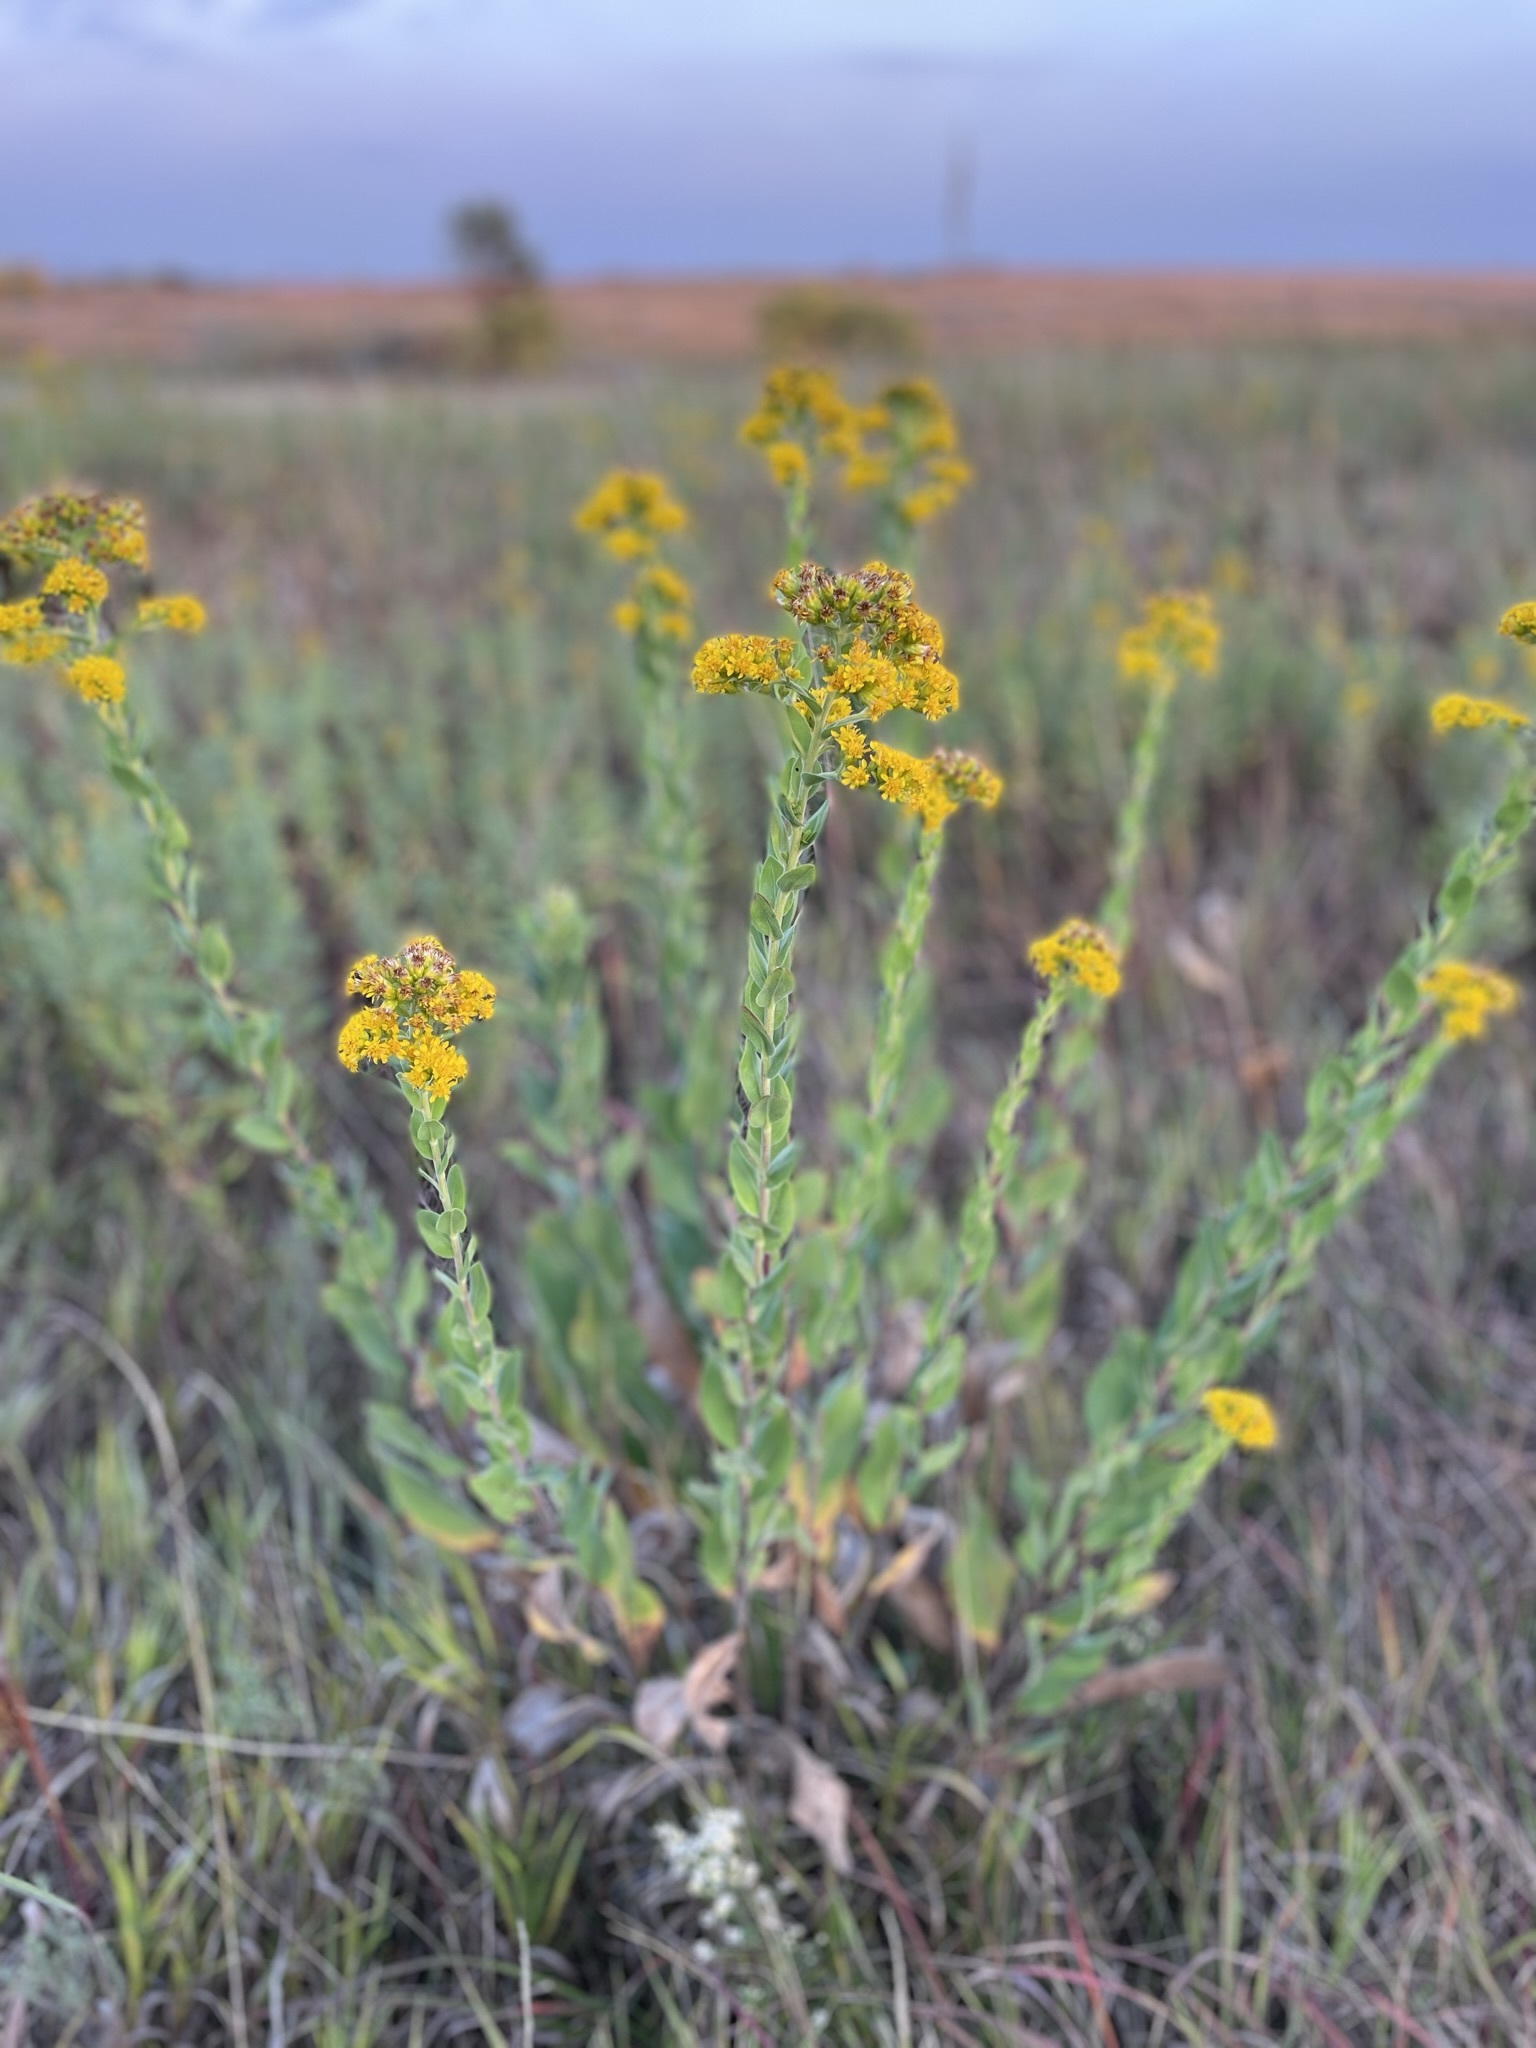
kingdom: Plantae
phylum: Tracheophyta
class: Magnoliopsida
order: Asterales
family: Asteraceae
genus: Solidago
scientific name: Solidago rigida
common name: Rigid goldenrod
